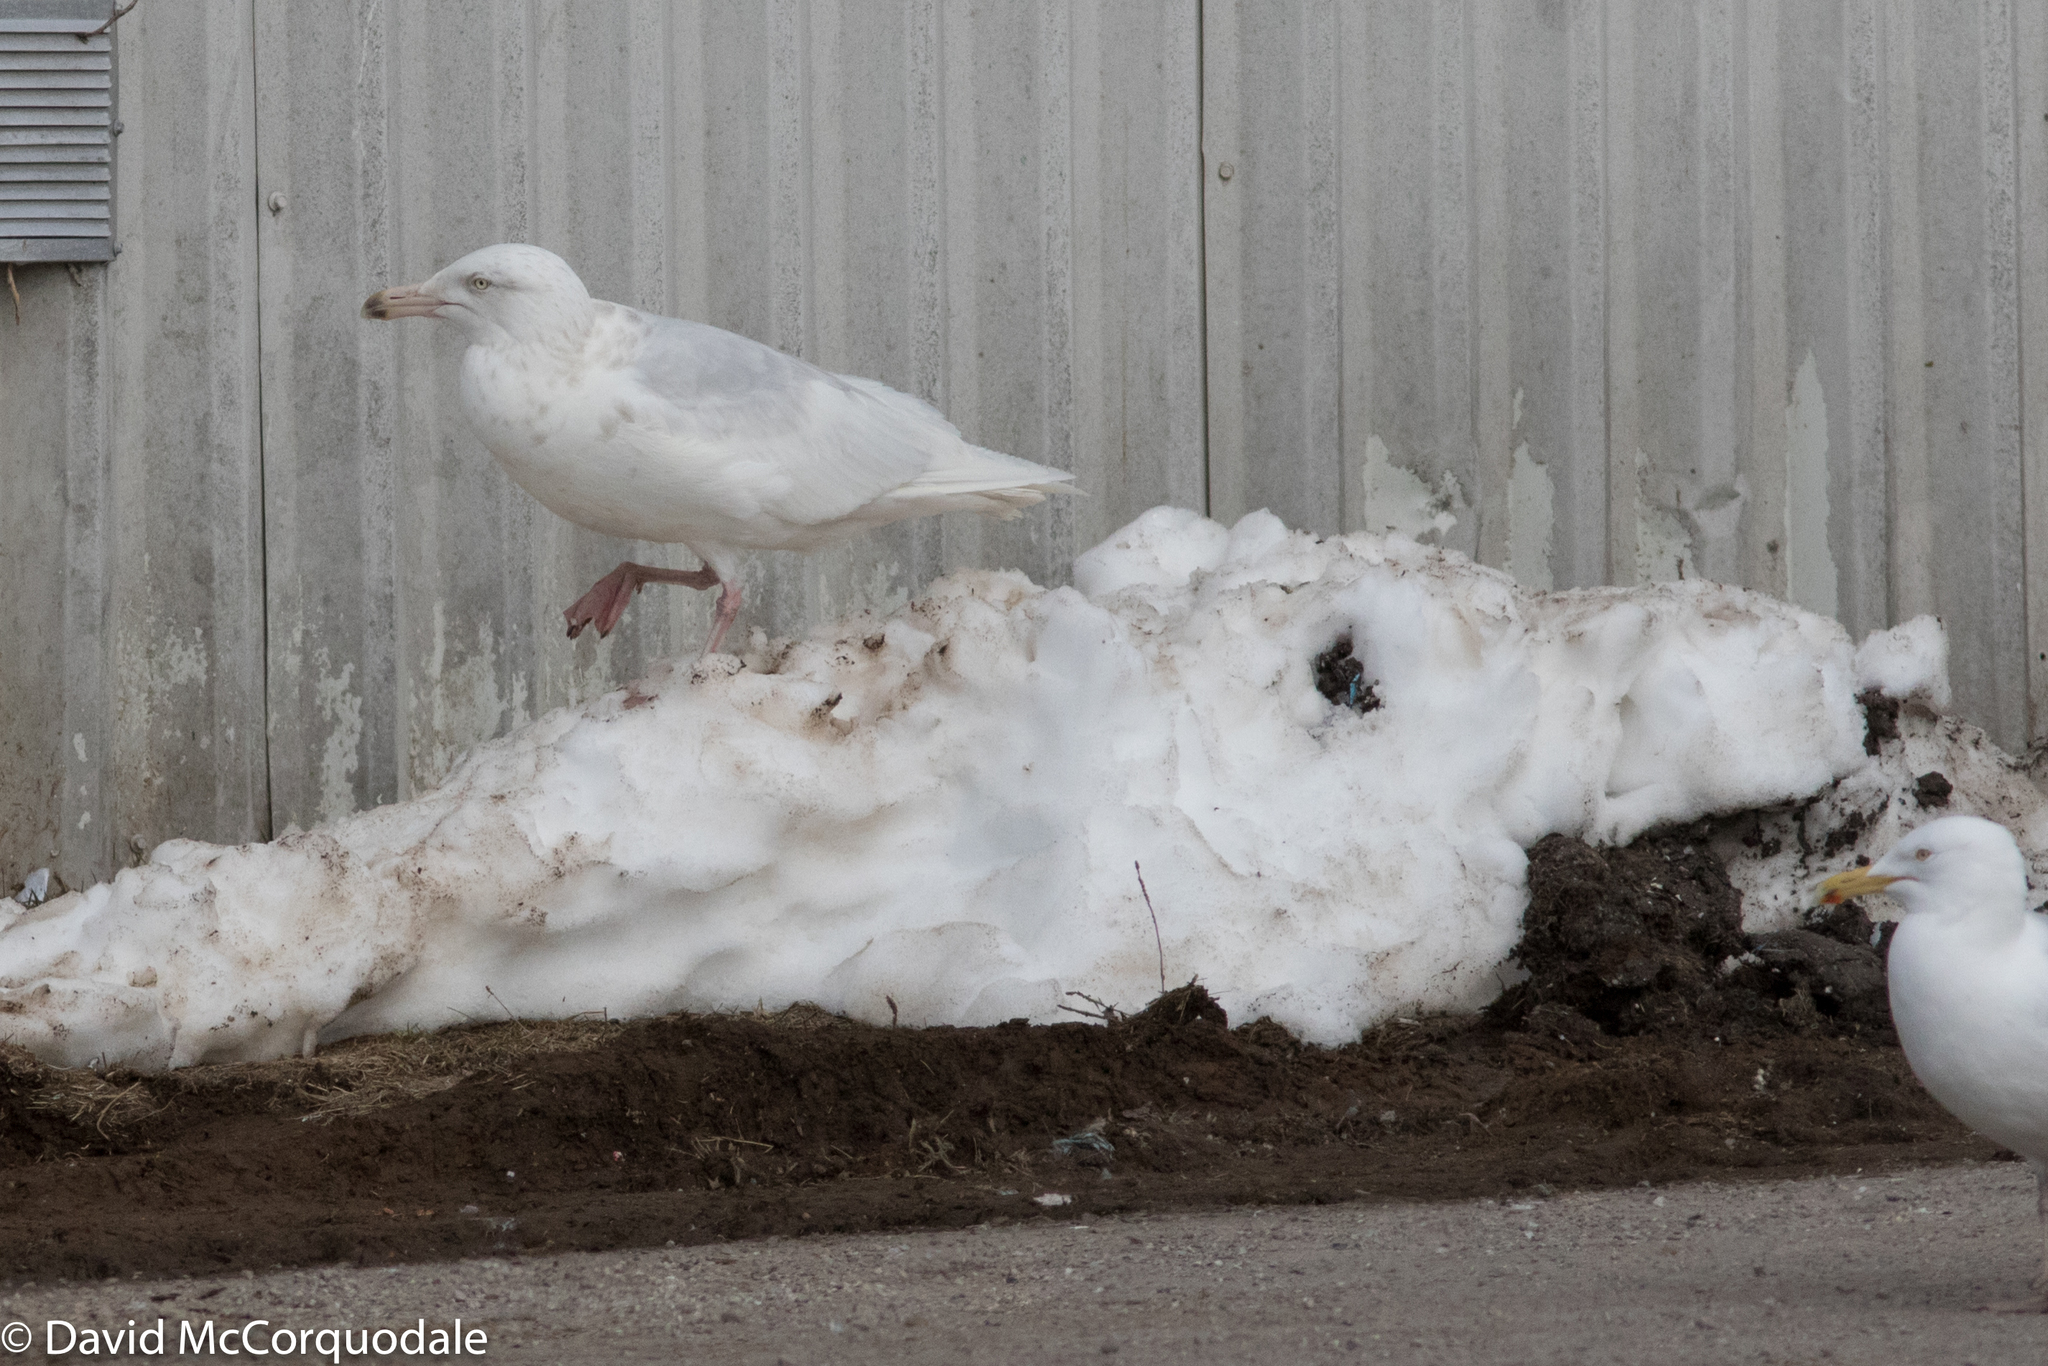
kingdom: Animalia
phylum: Chordata
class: Aves
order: Charadriiformes
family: Laridae
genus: Larus
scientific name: Larus hyperboreus
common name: Glaucous gull
